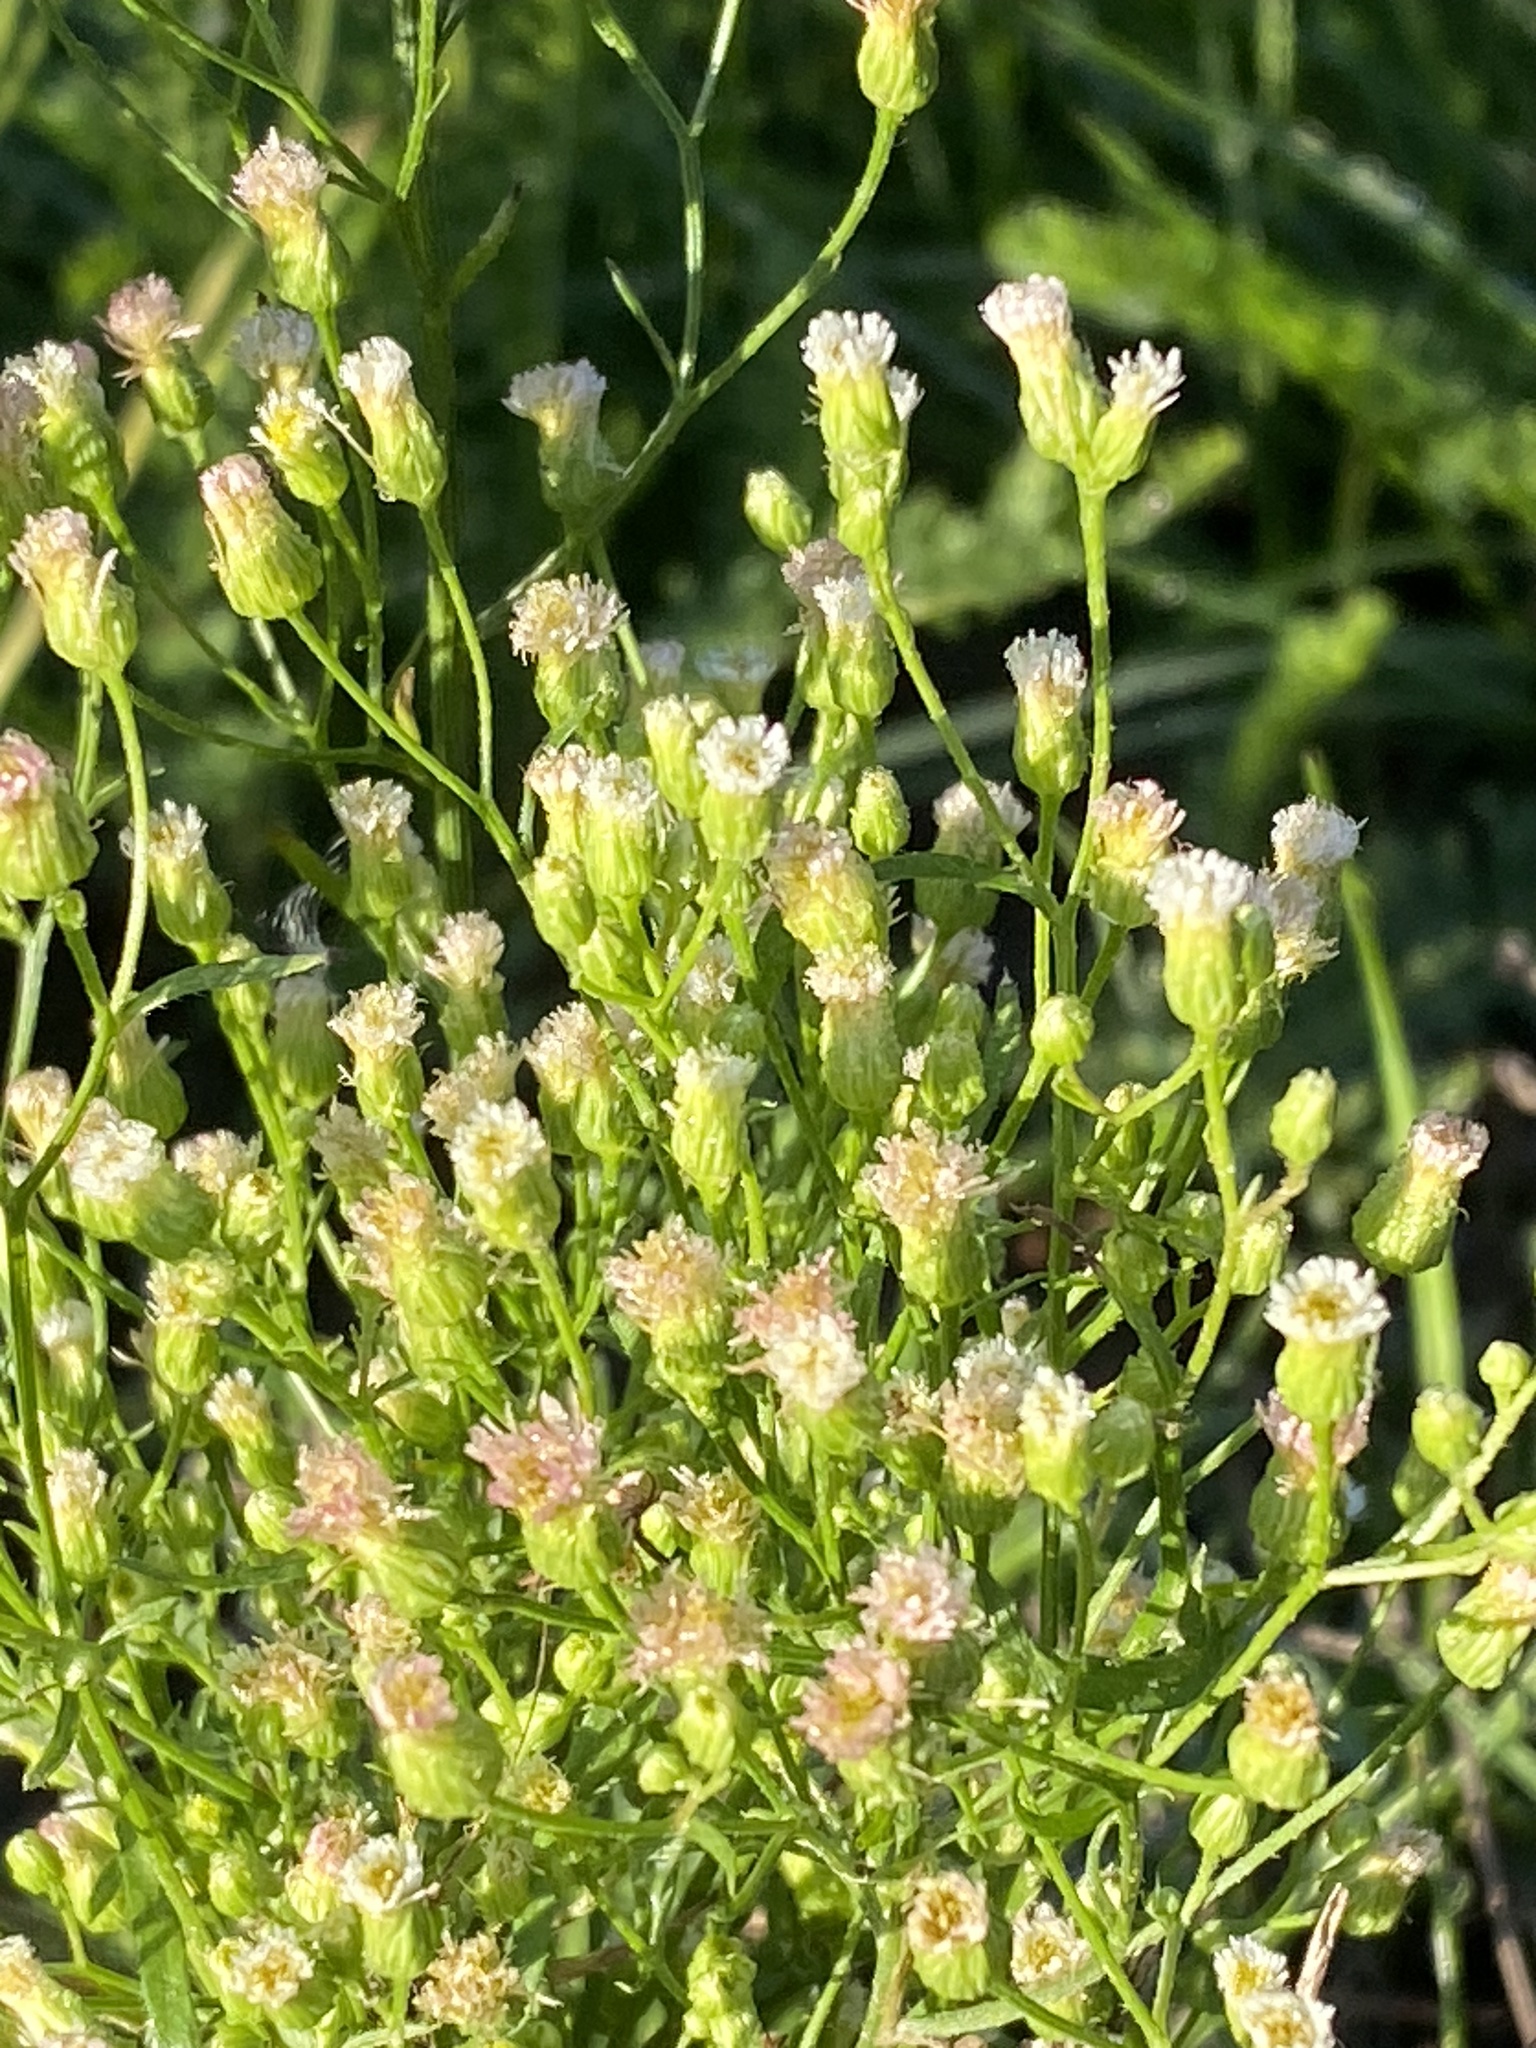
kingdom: Plantae
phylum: Tracheophyta
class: Magnoliopsida
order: Asterales
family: Asteraceae
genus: Erigeron
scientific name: Erigeron canadensis
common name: Canadian fleabane
